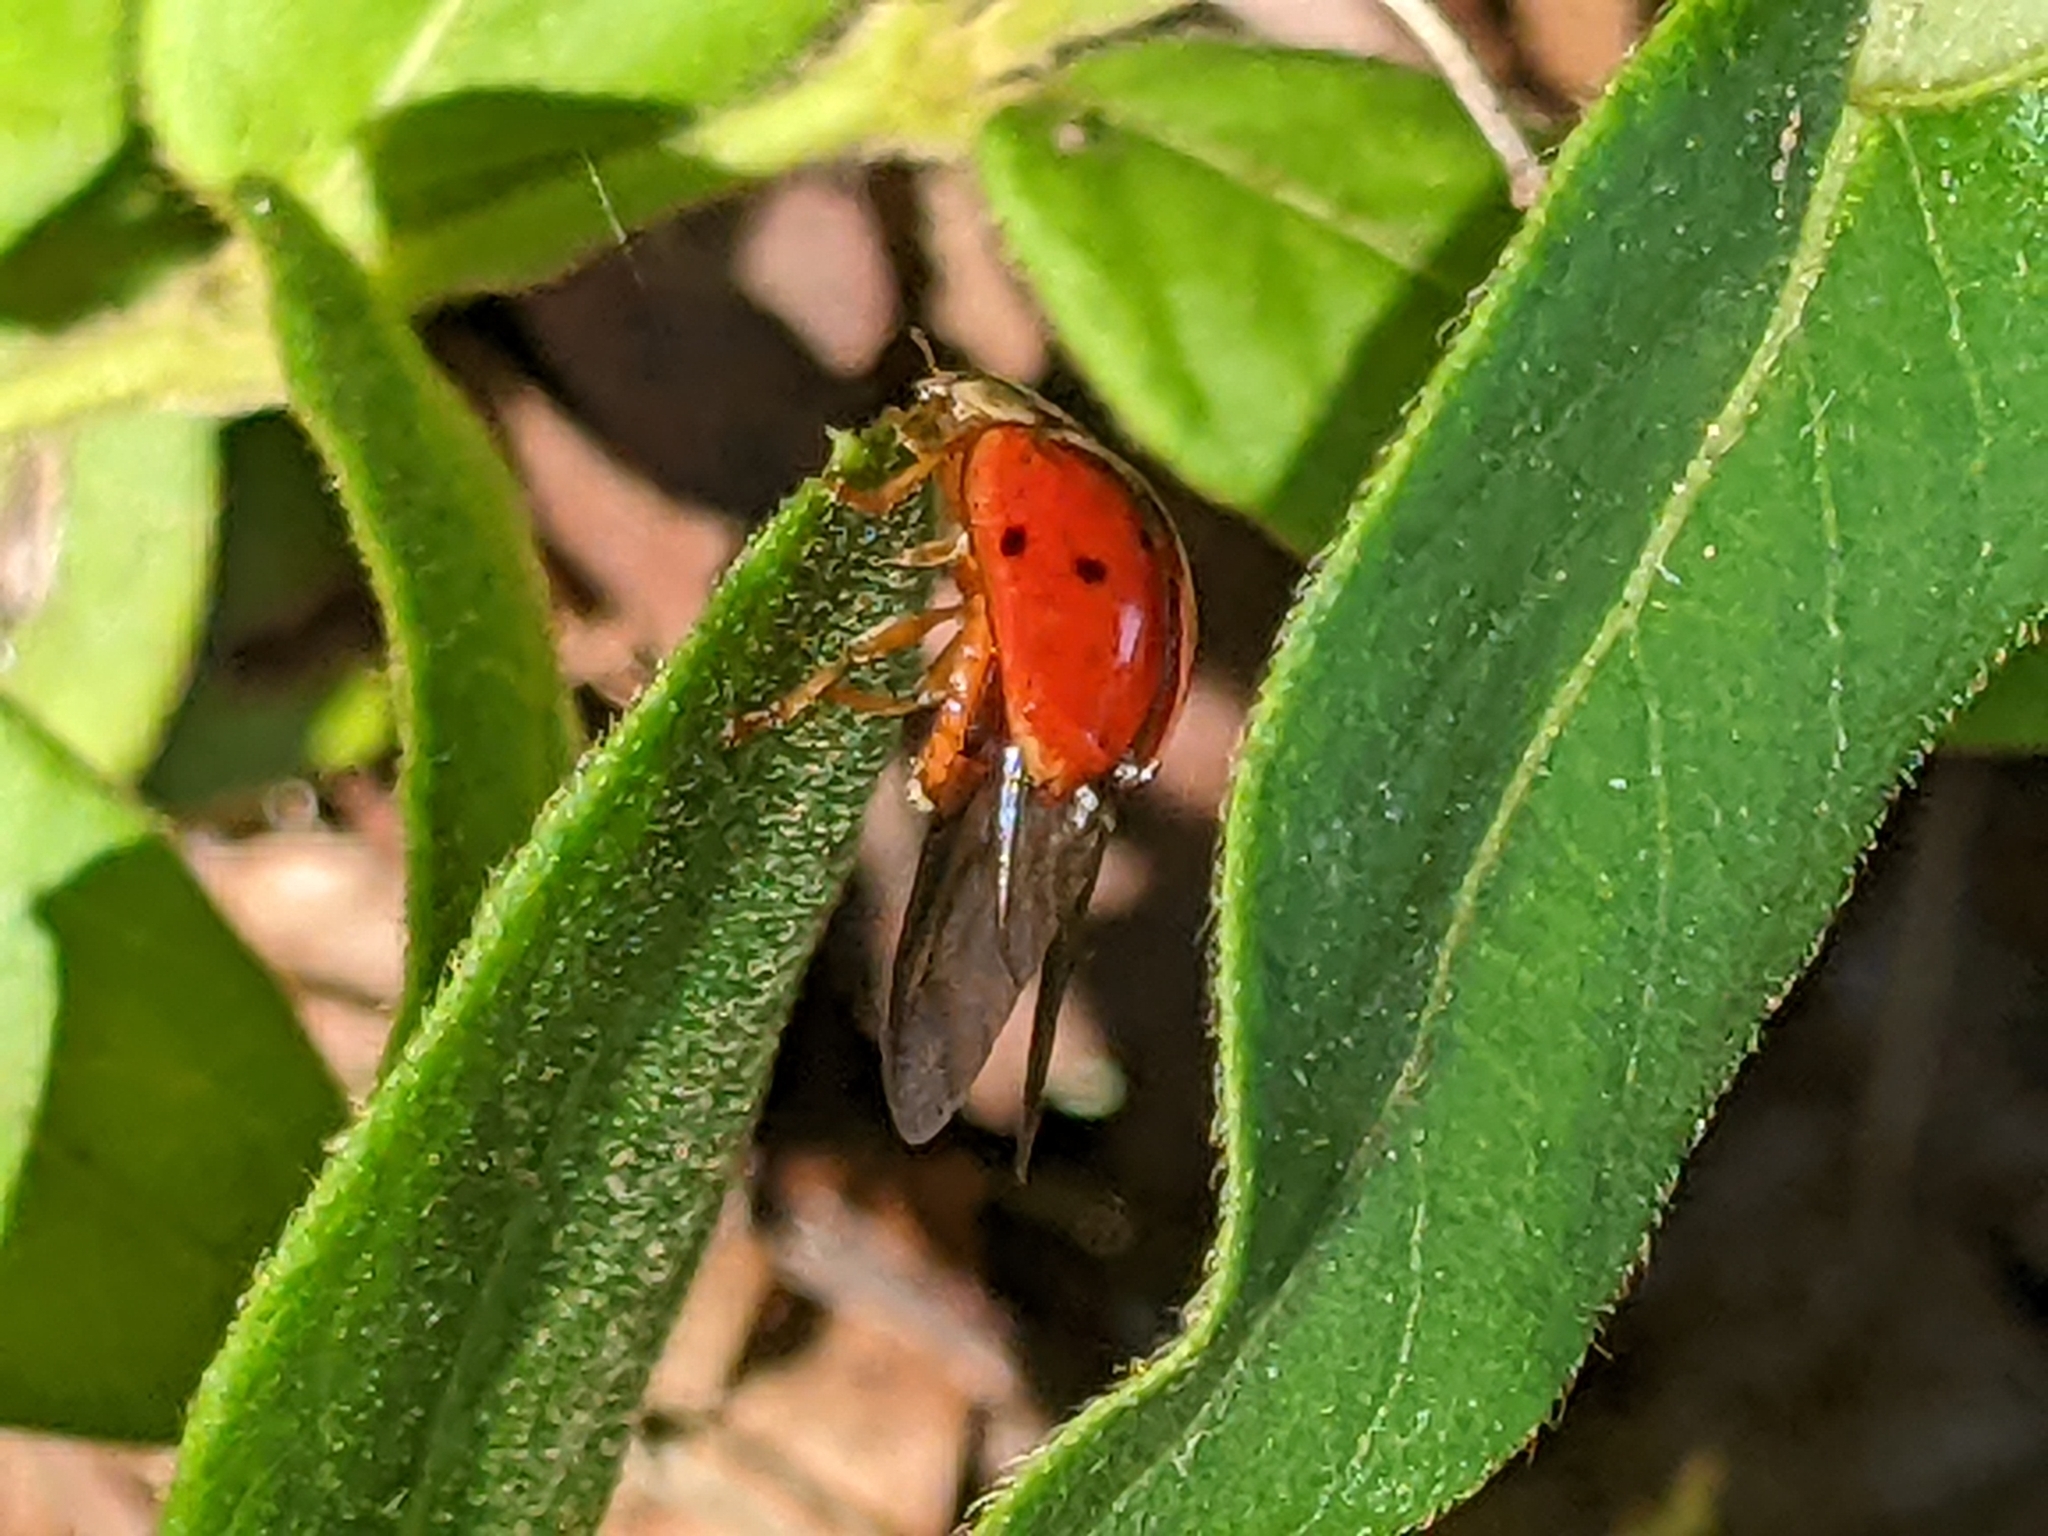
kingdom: Animalia
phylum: Arthropoda
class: Insecta
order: Coleoptera
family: Coccinellidae
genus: Harmonia
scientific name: Harmonia axyridis
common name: Harlequin ladybird
